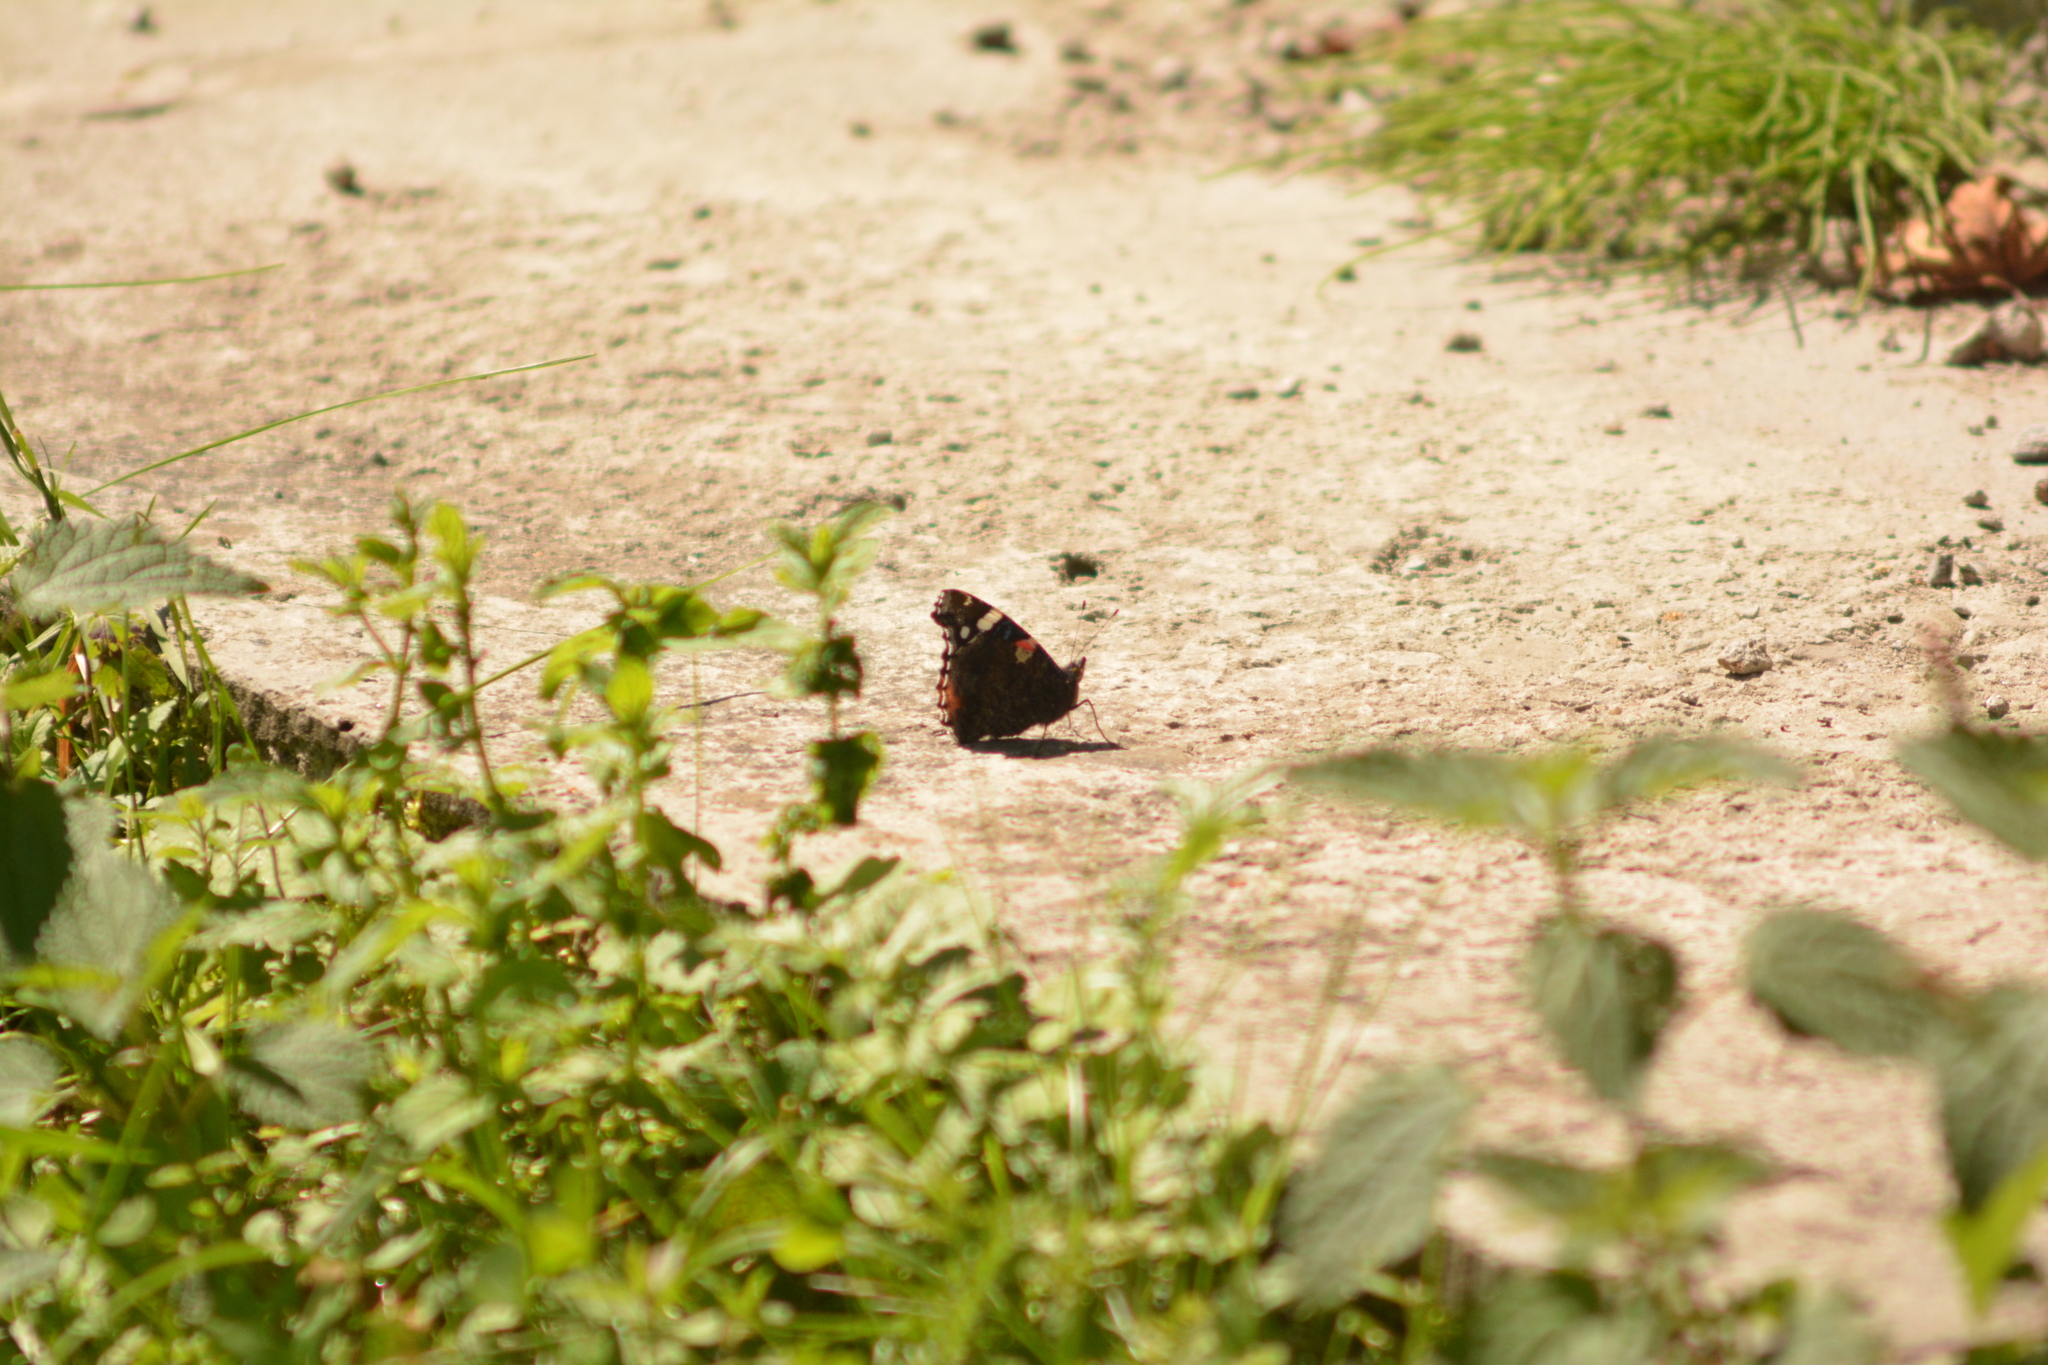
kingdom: Animalia
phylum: Arthropoda
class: Insecta
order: Lepidoptera
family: Nymphalidae
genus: Vanessa
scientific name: Vanessa atalanta
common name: Red admiral
